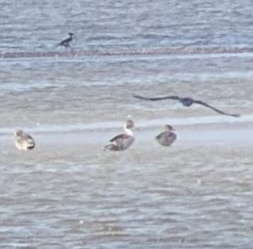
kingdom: Animalia
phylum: Chordata
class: Aves
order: Anseriformes
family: Anatidae
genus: Anas
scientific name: Anas acuta
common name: Northern pintail
